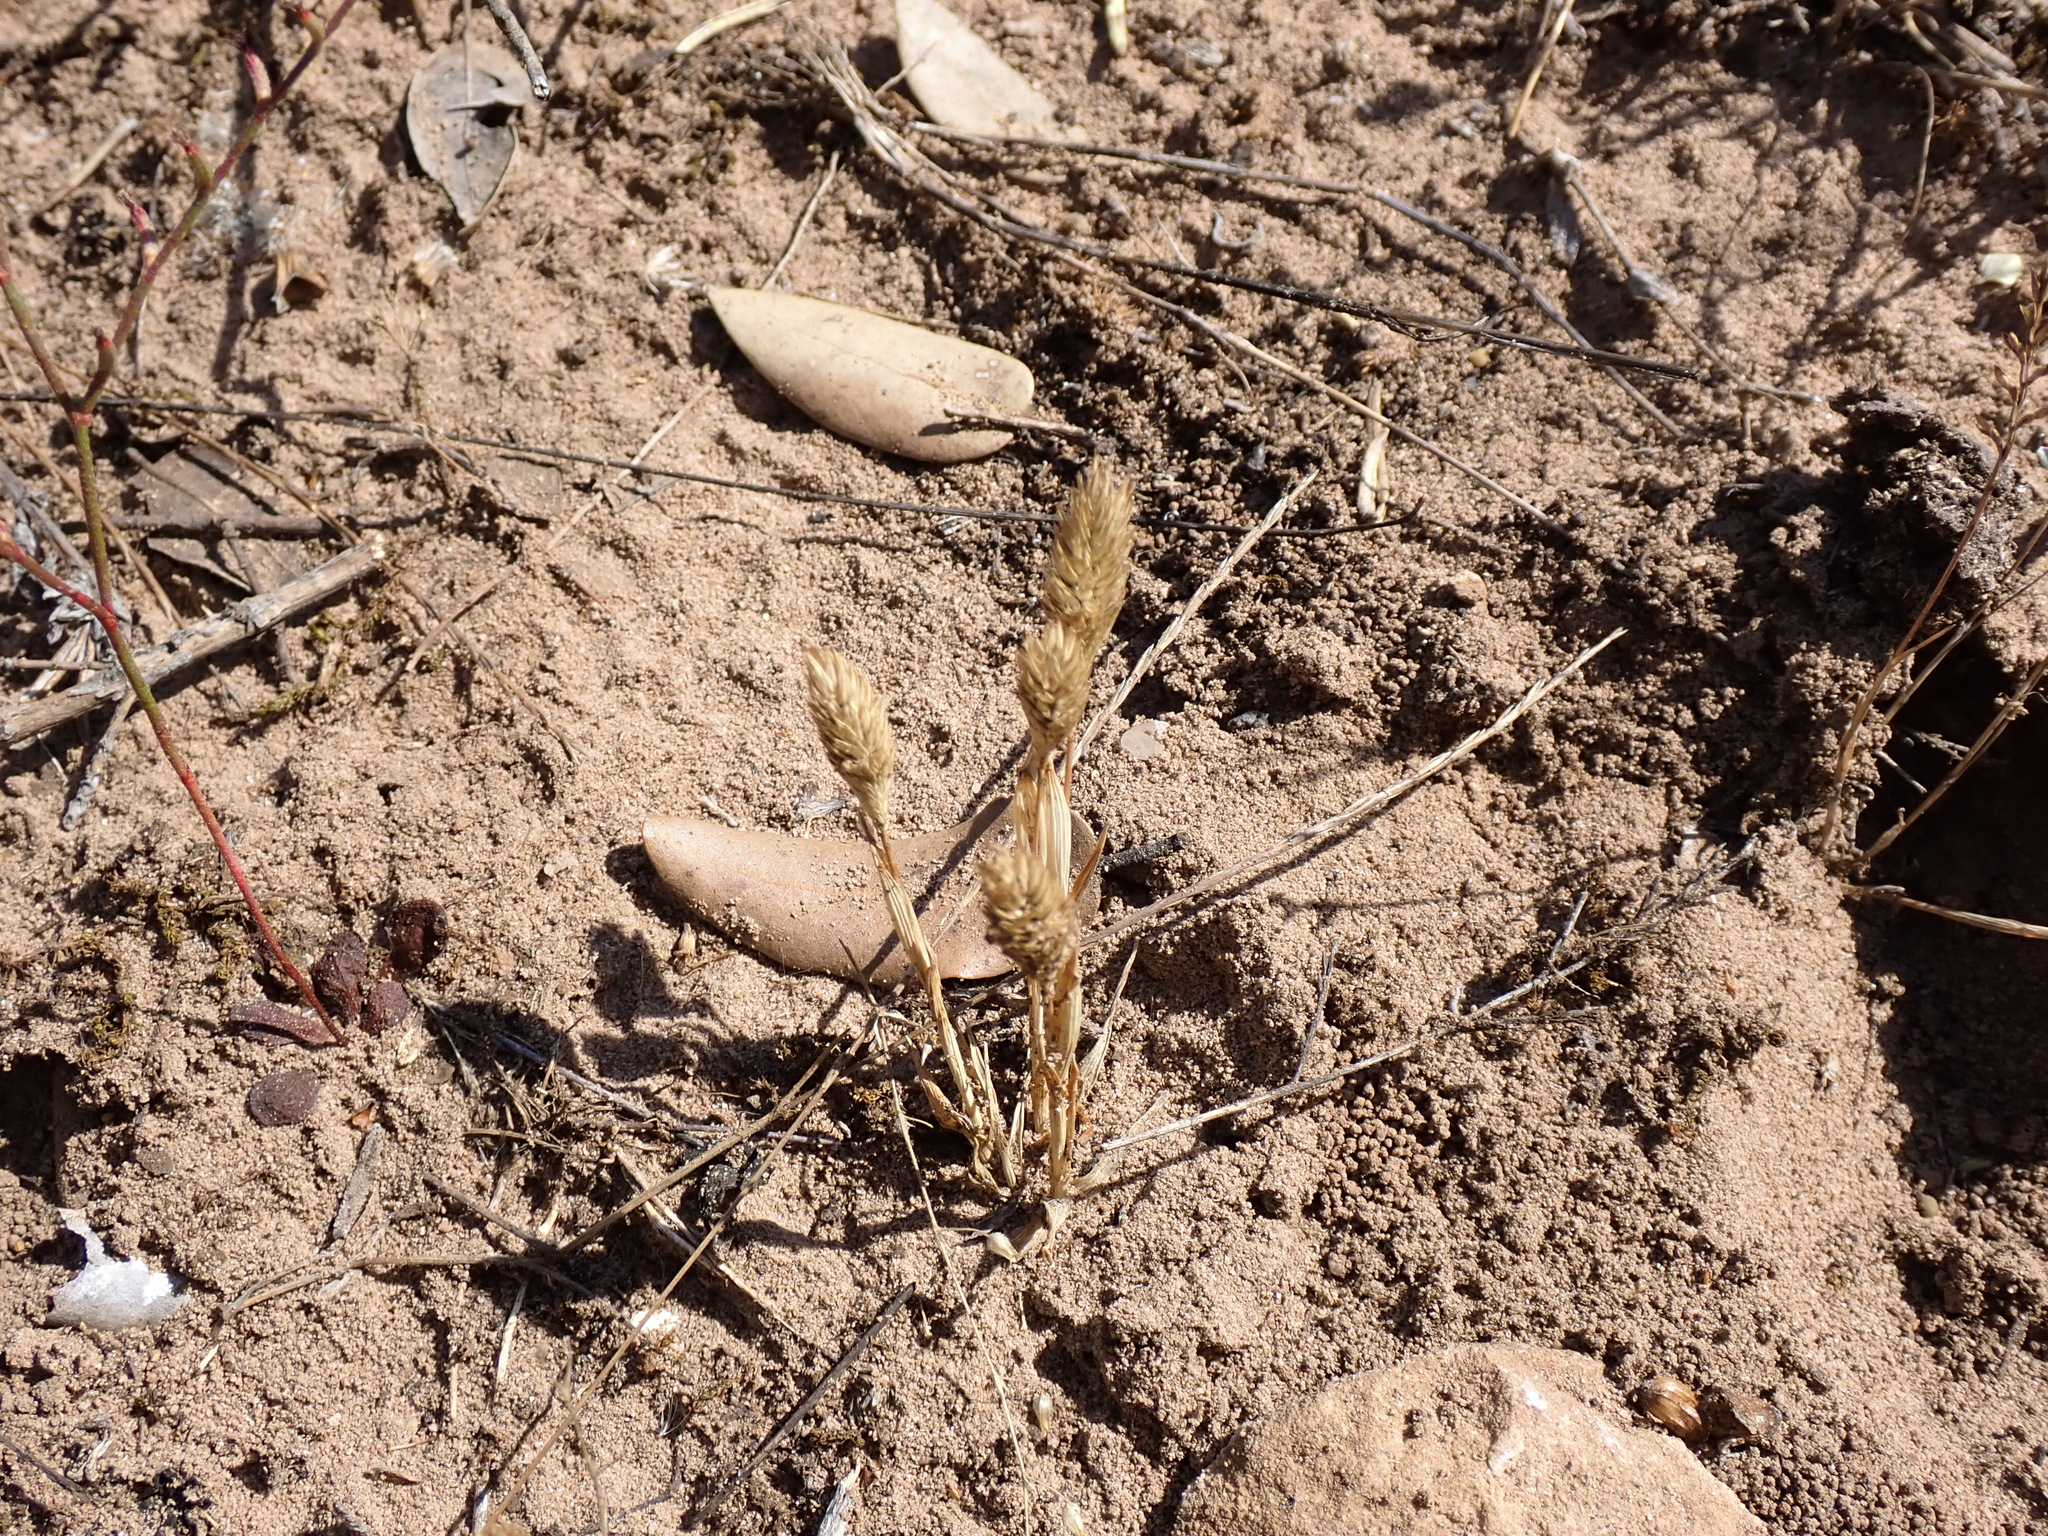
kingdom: Plantae
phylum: Tracheophyta
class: Liliopsida
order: Poales
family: Poaceae
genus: Phleum
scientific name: Phleum arenarium
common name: Sand cat's-tail
